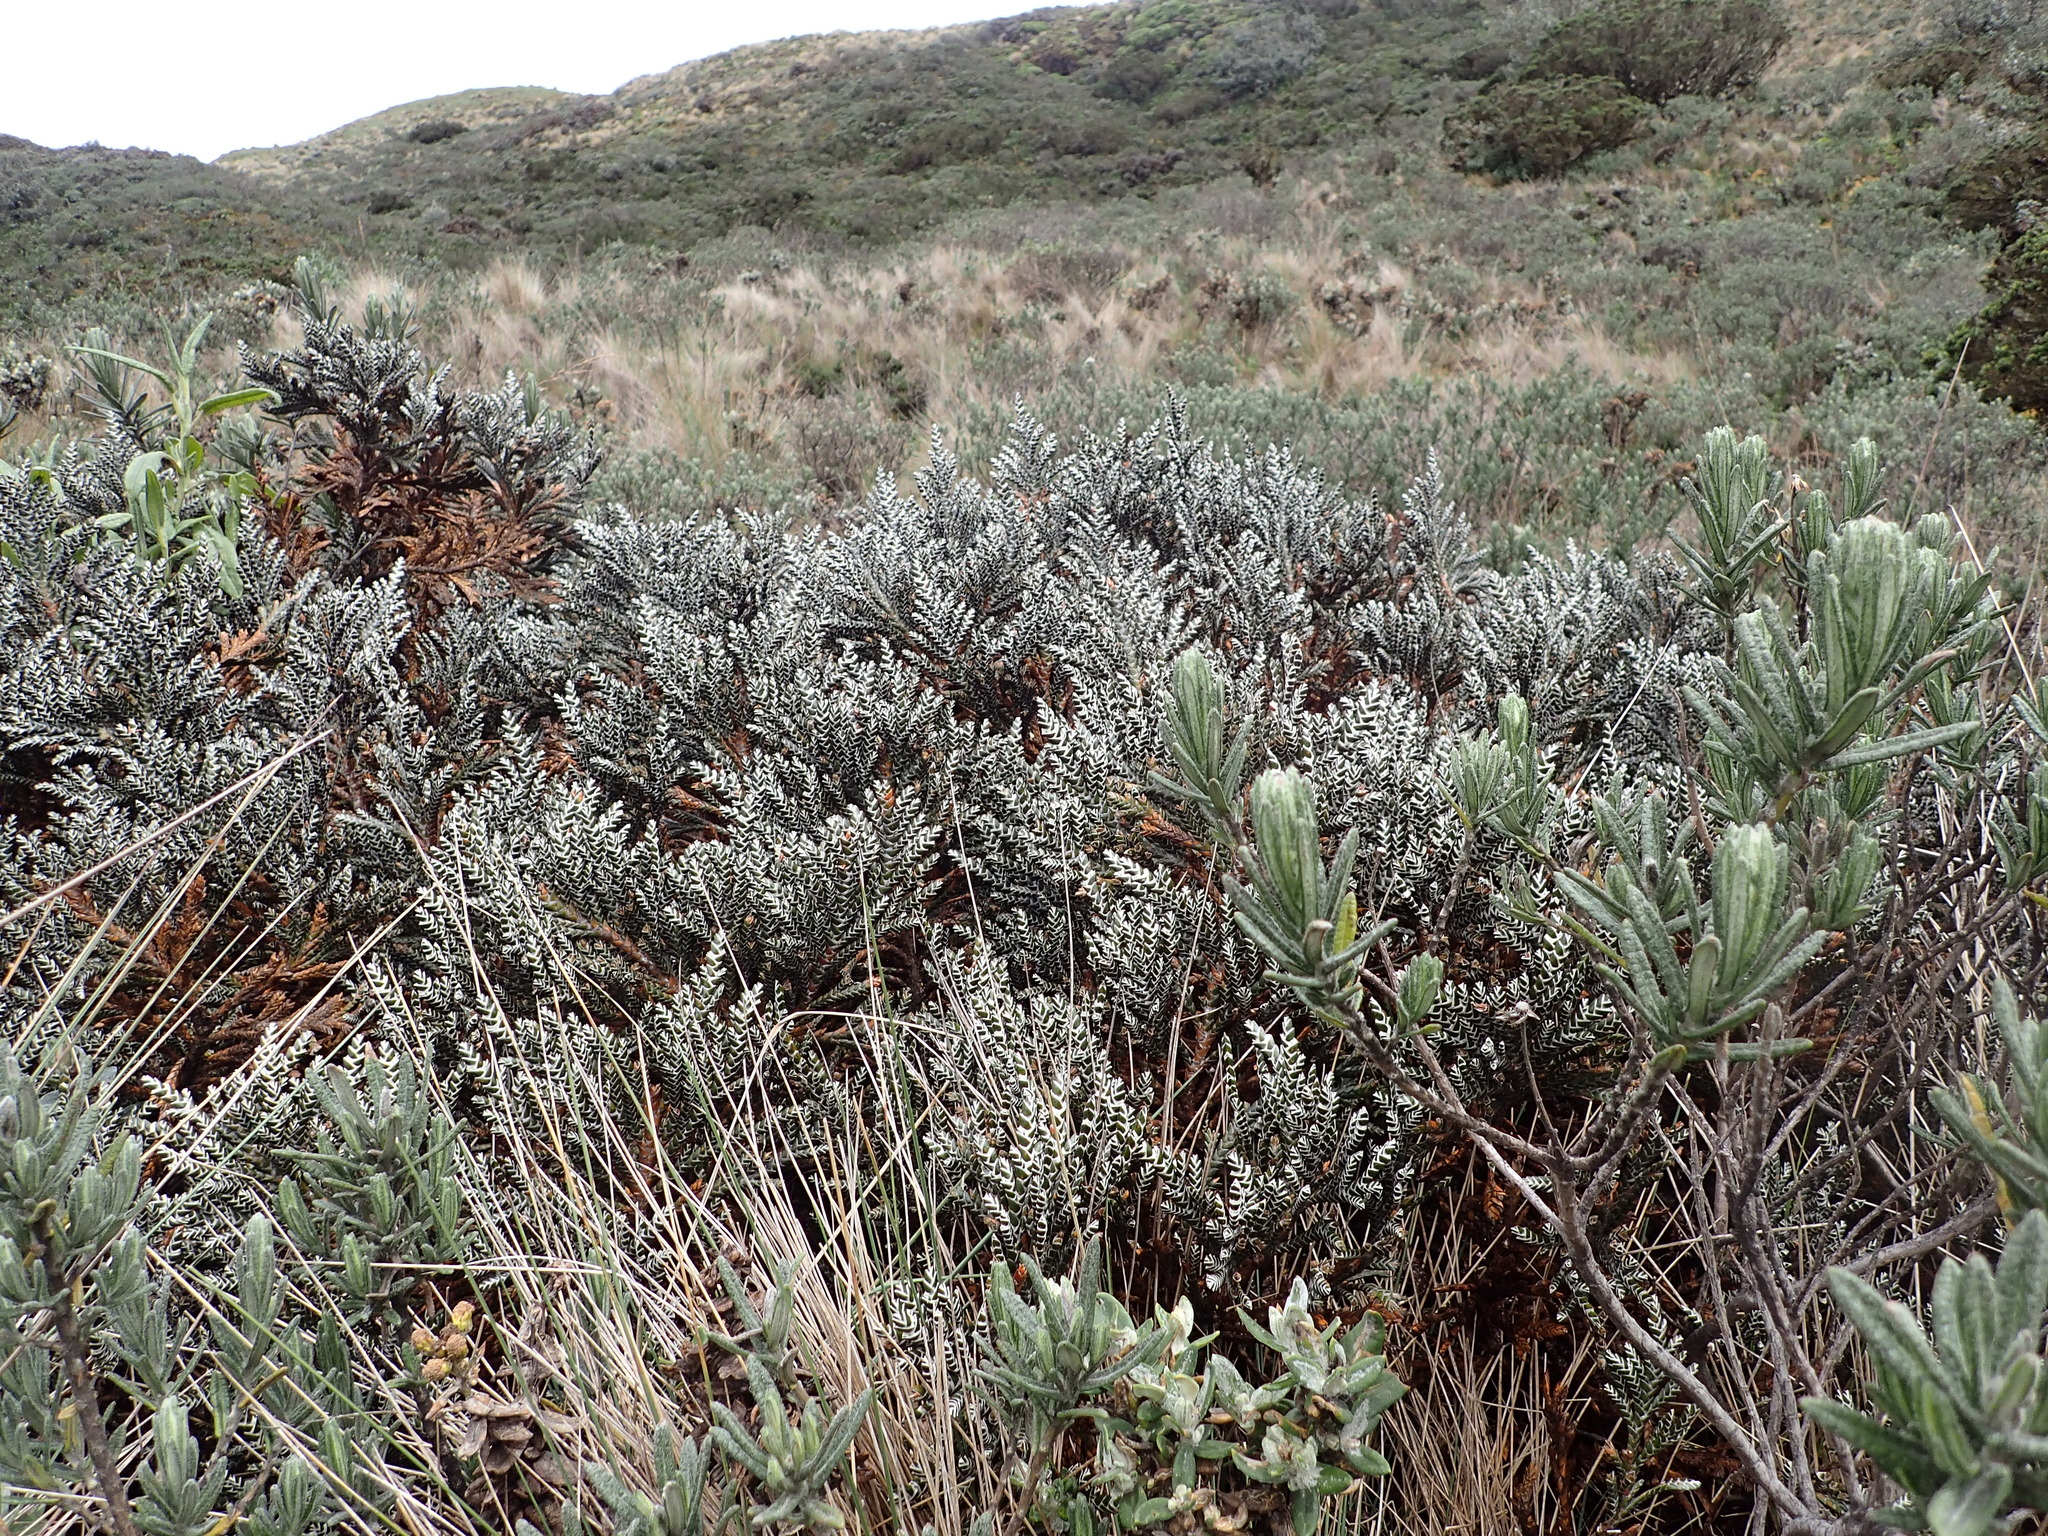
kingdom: Plantae
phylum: Tracheophyta
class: Magnoliopsida
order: Asterales
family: Asteraceae
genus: Andicolea
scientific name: Andicolea thuyoides
